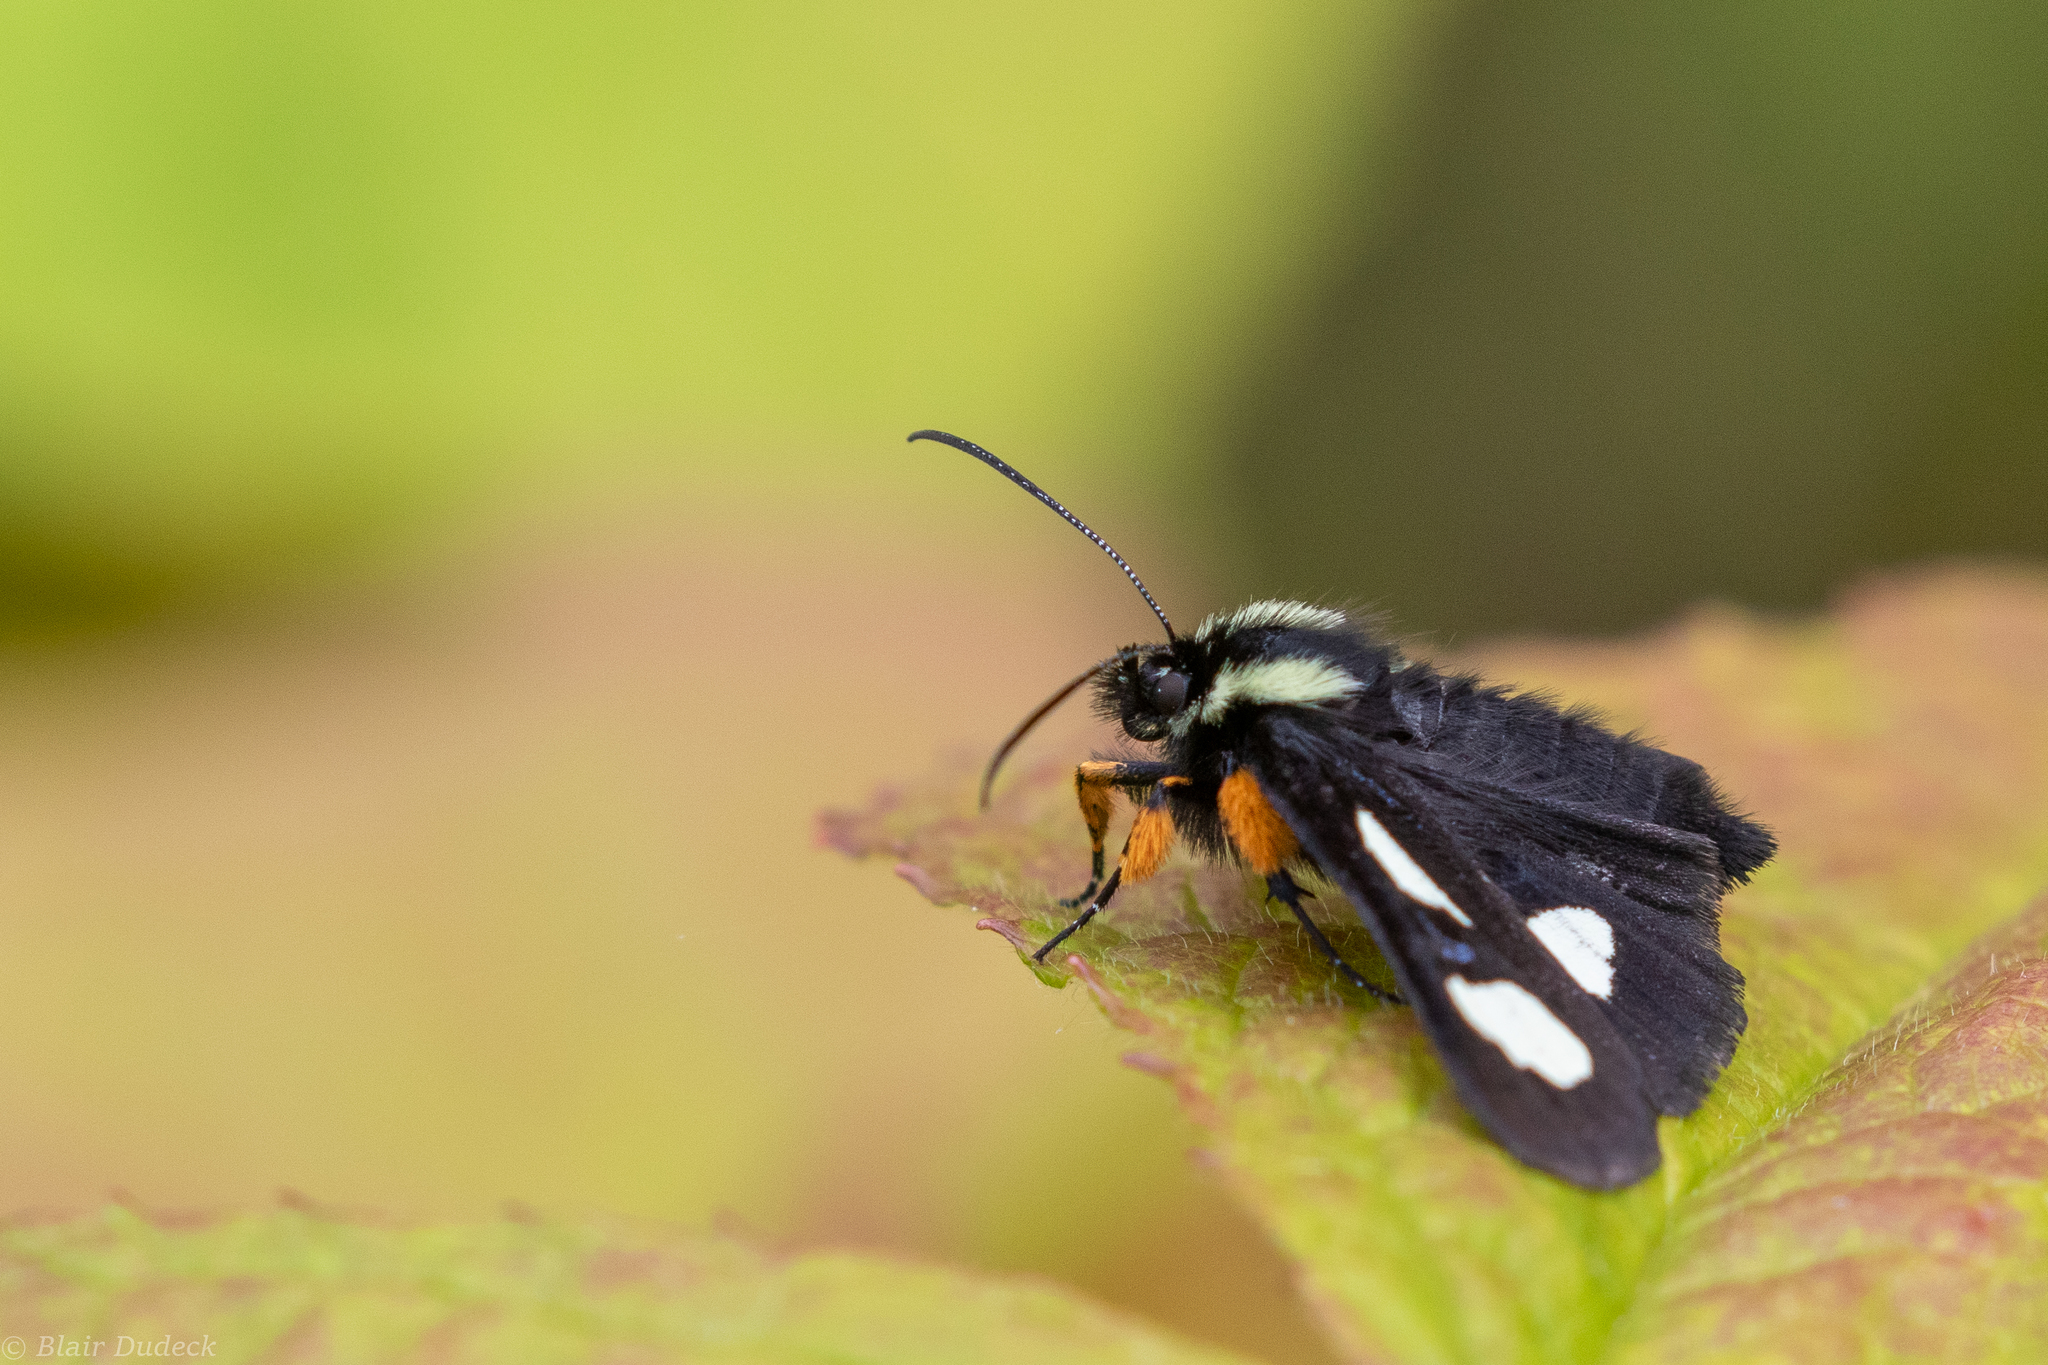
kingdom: Animalia
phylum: Arthropoda
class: Insecta
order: Lepidoptera
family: Noctuidae
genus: Alypia
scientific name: Alypia langtonii
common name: Fireweed caterpillar
